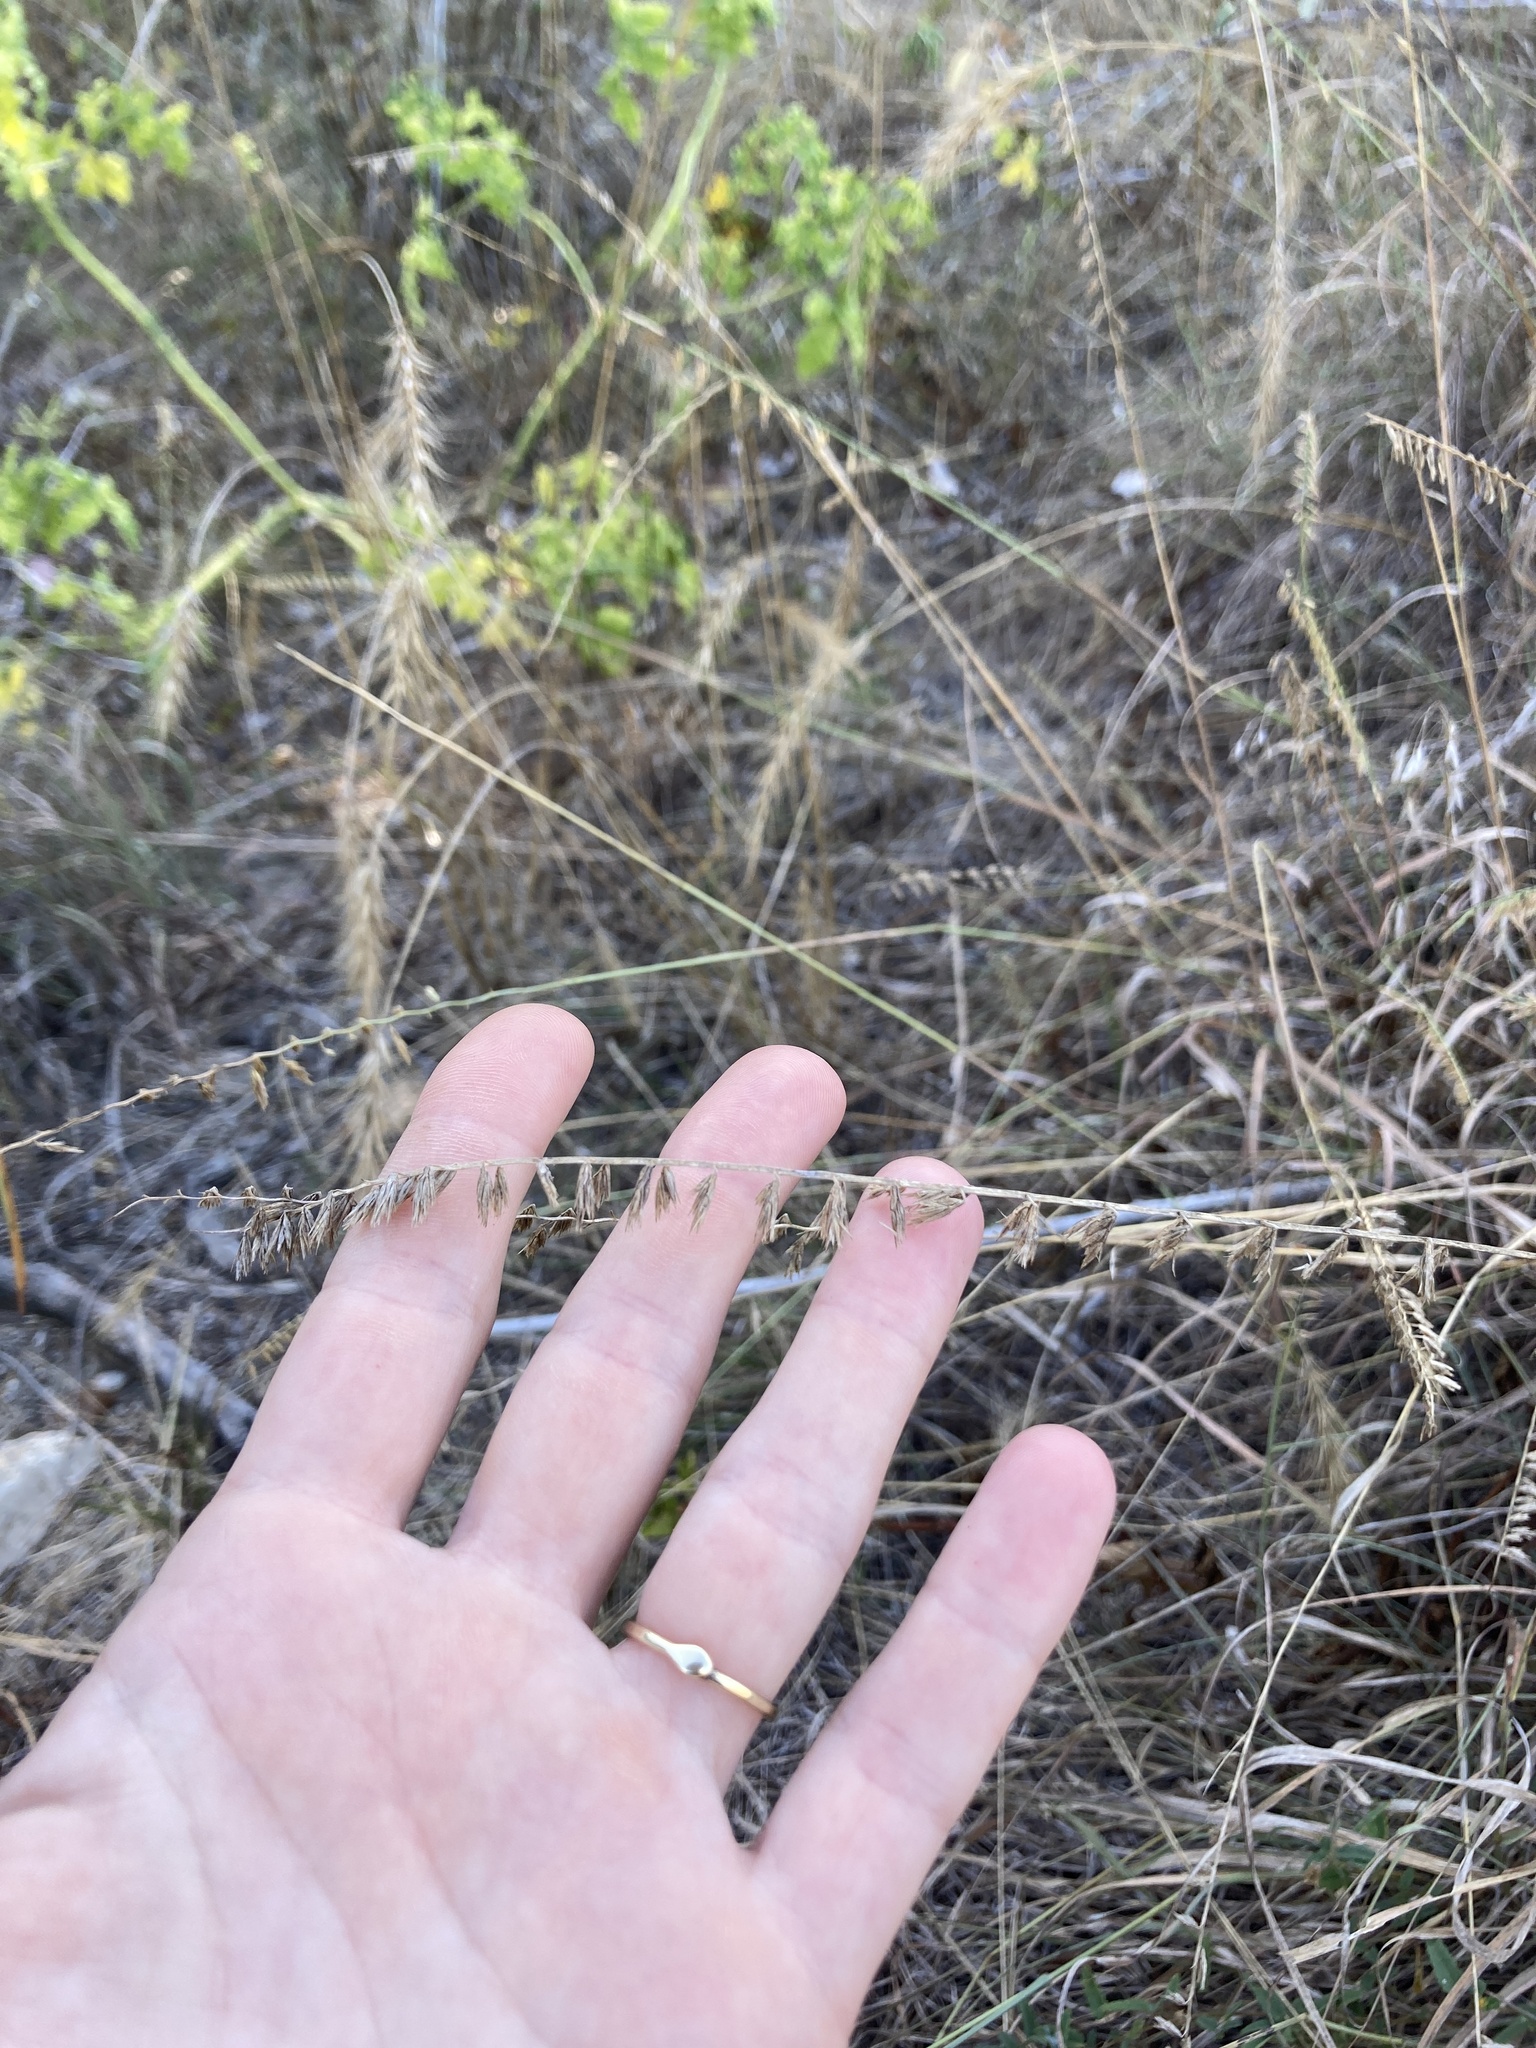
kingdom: Plantae
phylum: Tracheophyta
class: Liliopsida
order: Poales
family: Poaceae
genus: Bouteloua
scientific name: Bouteloua curtipendula
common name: Side-oats grama
